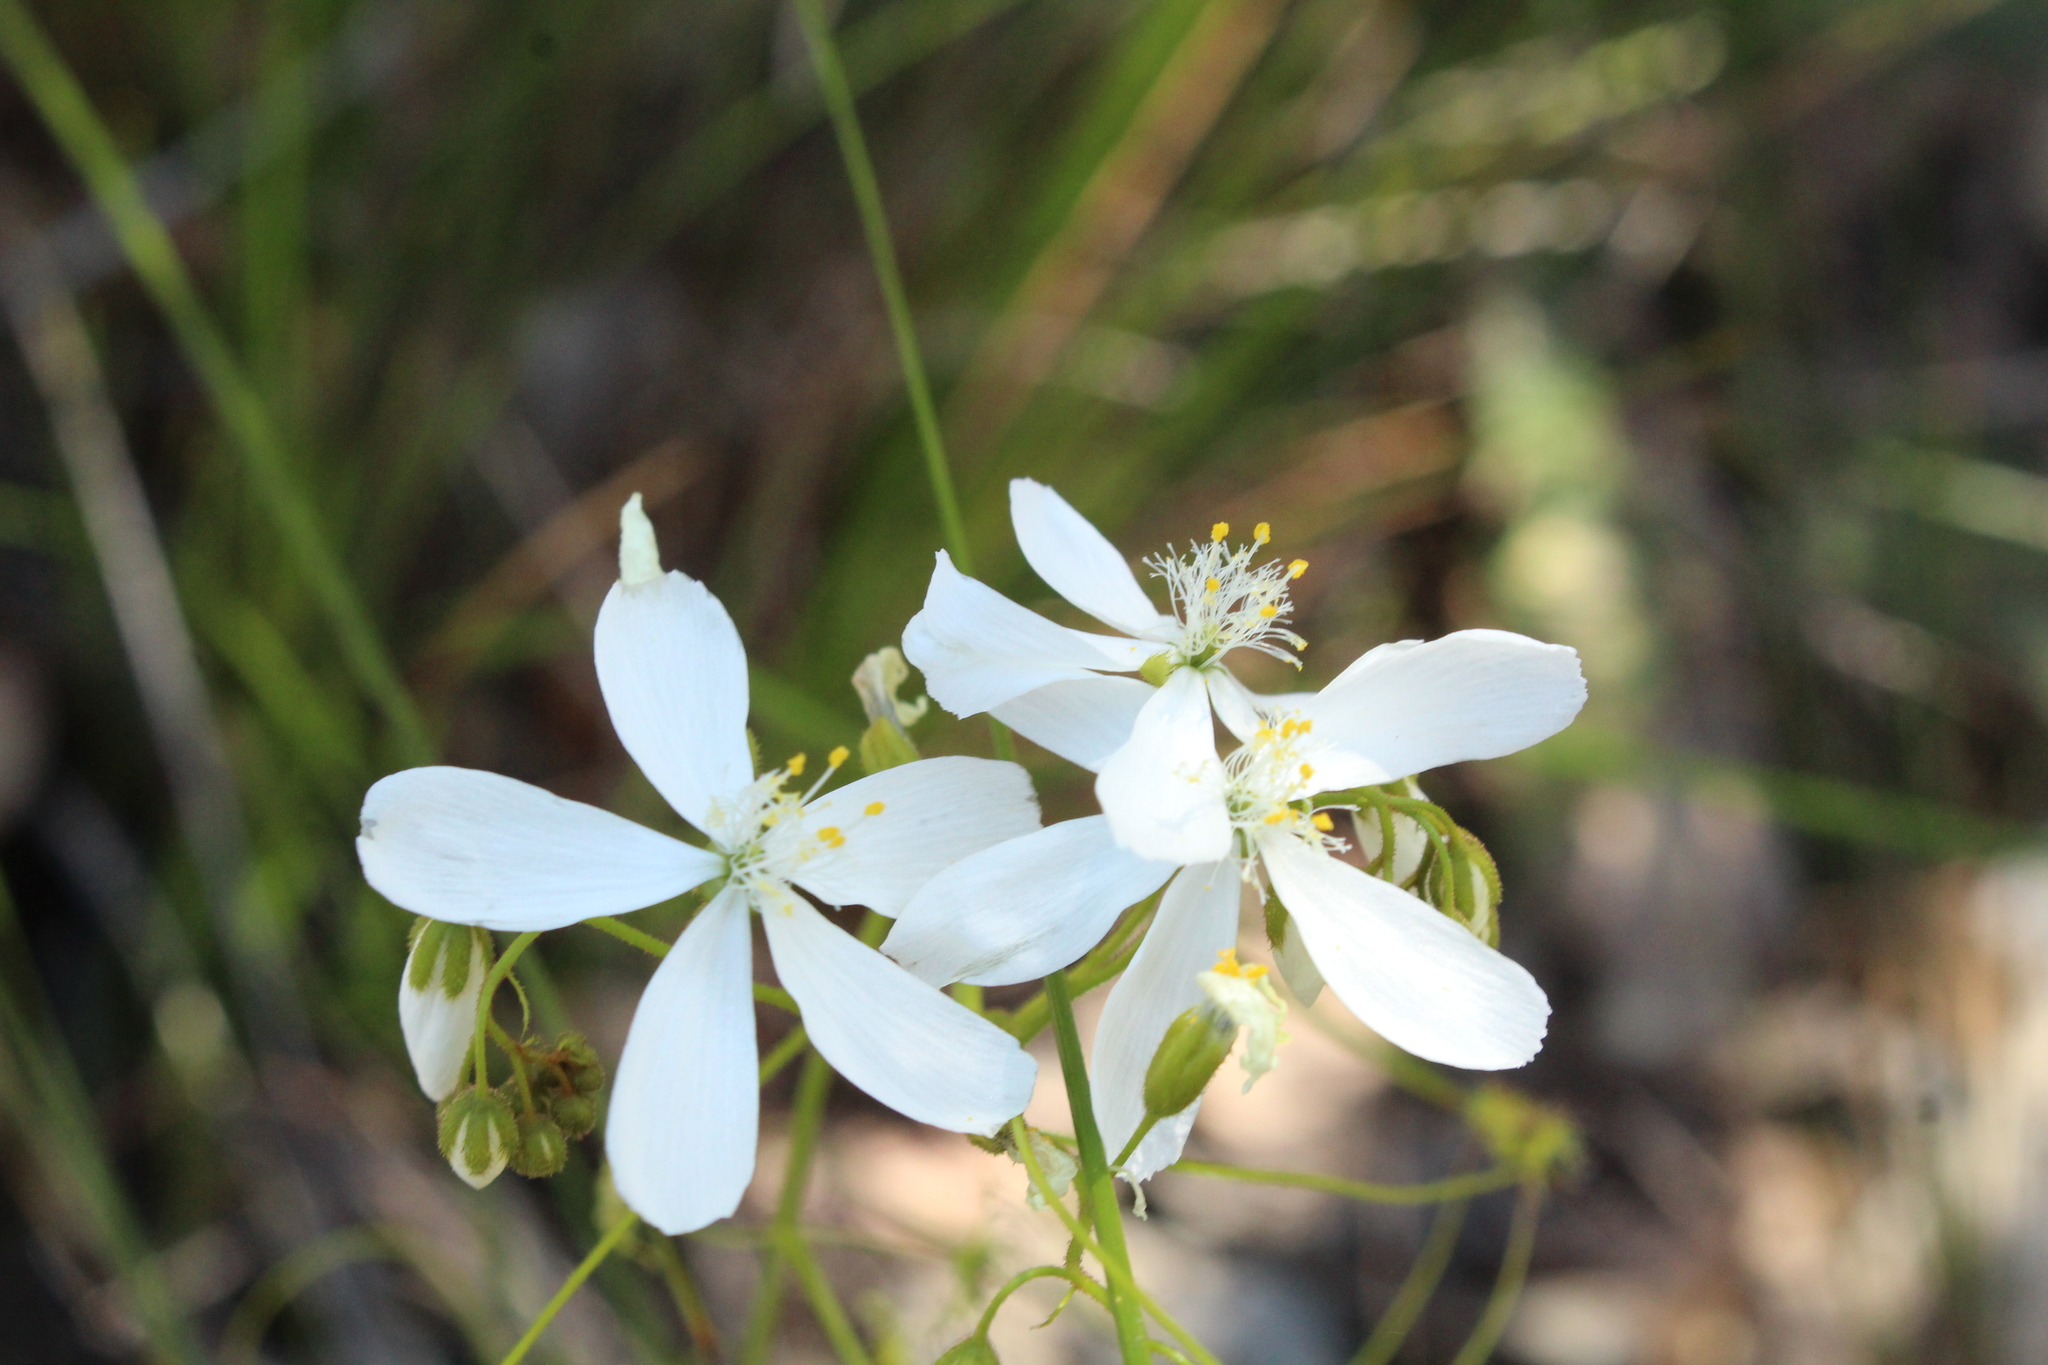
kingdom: Plantae
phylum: Tracheophyta
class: Magnoliopsida
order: Caryophyllales
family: Droseraceae
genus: Drosera
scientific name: Drosera modesta
